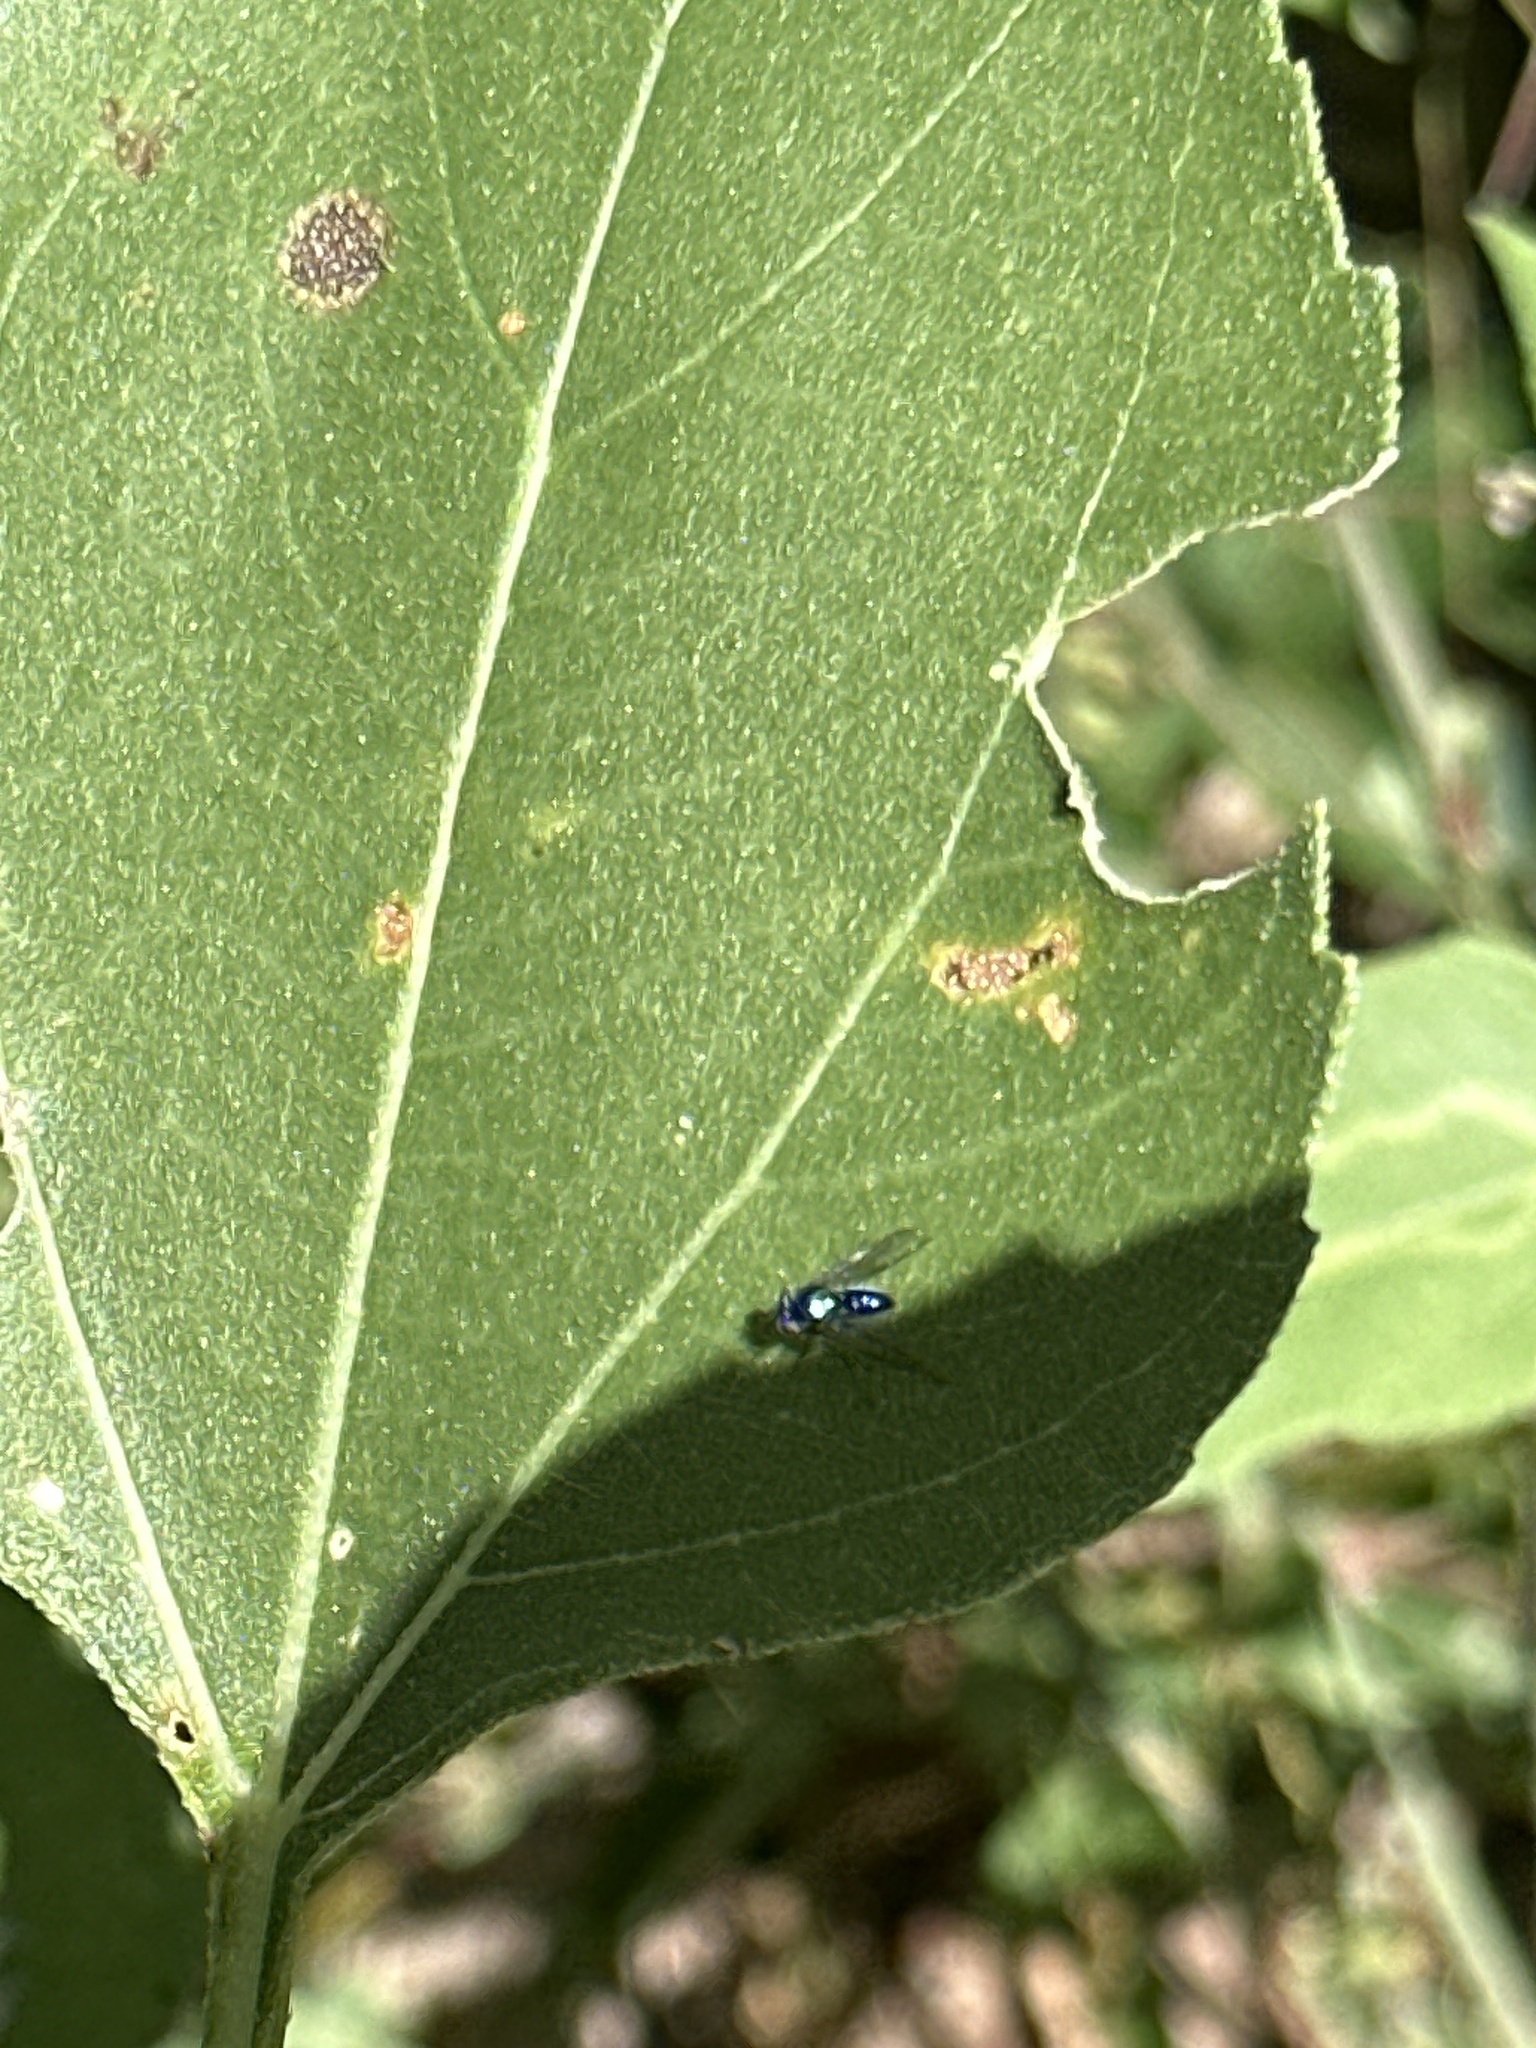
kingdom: Animalia
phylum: Arthropoda
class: Insecta
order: Diptera
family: Dolichopodidae
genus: Condylostylus
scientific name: Condylostylus mundus
